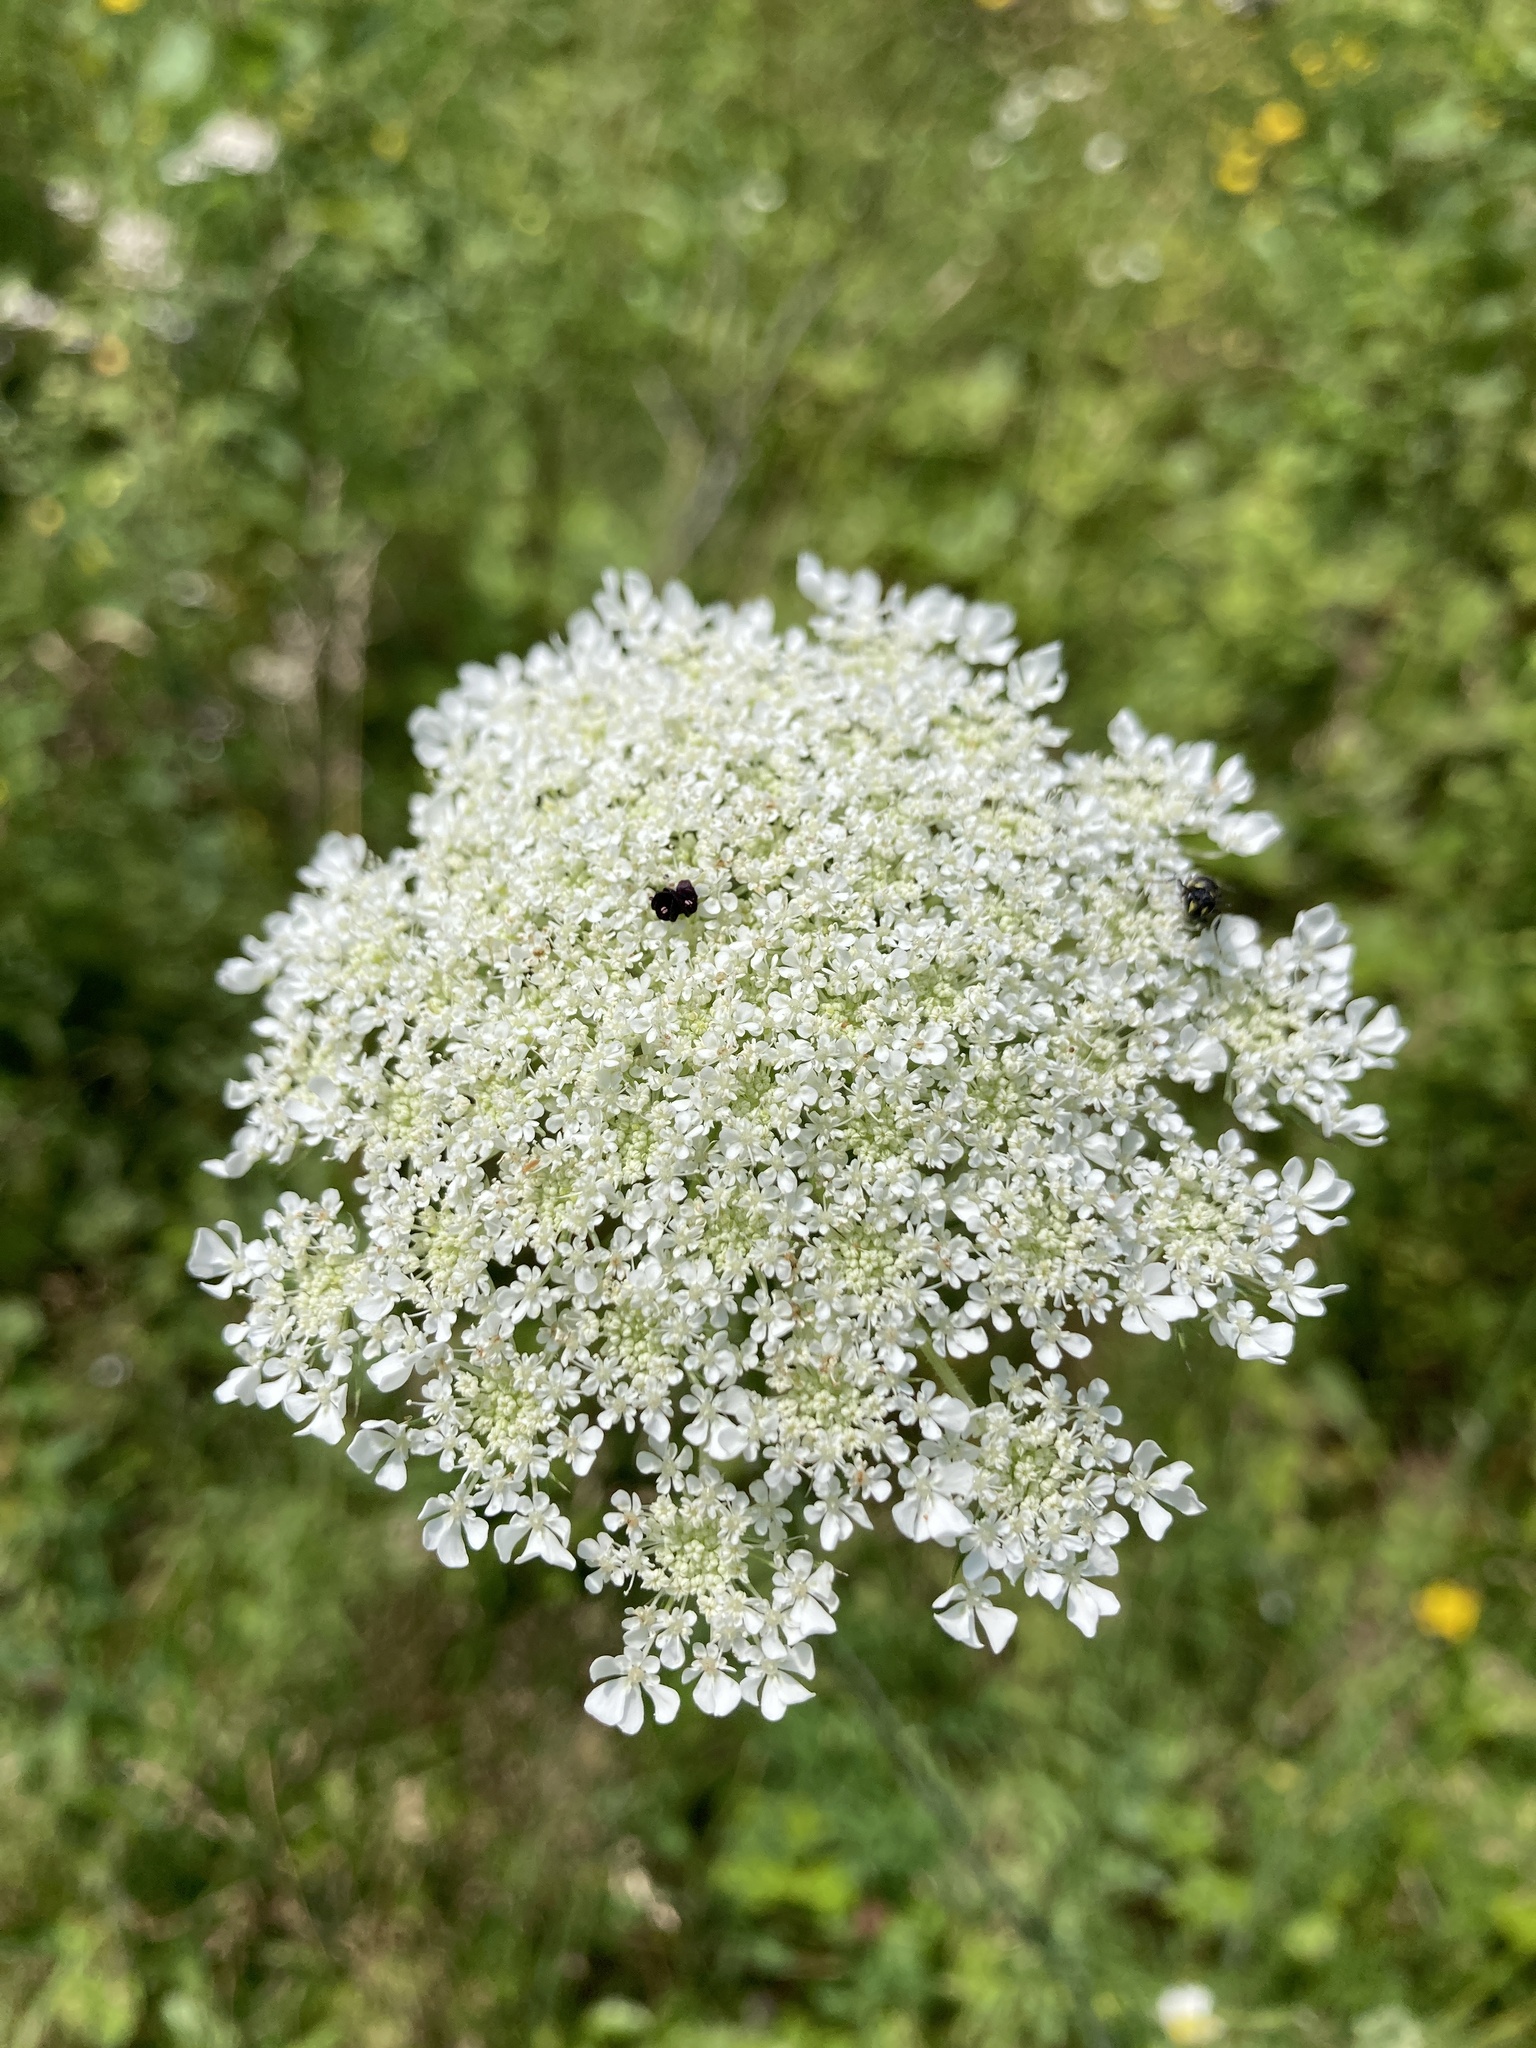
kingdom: Plantae
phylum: Tracheophyta
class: Magnoliopsida
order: Apiales
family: Apiaceae
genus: Daucus
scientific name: Daucus carota
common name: Wild carrot
